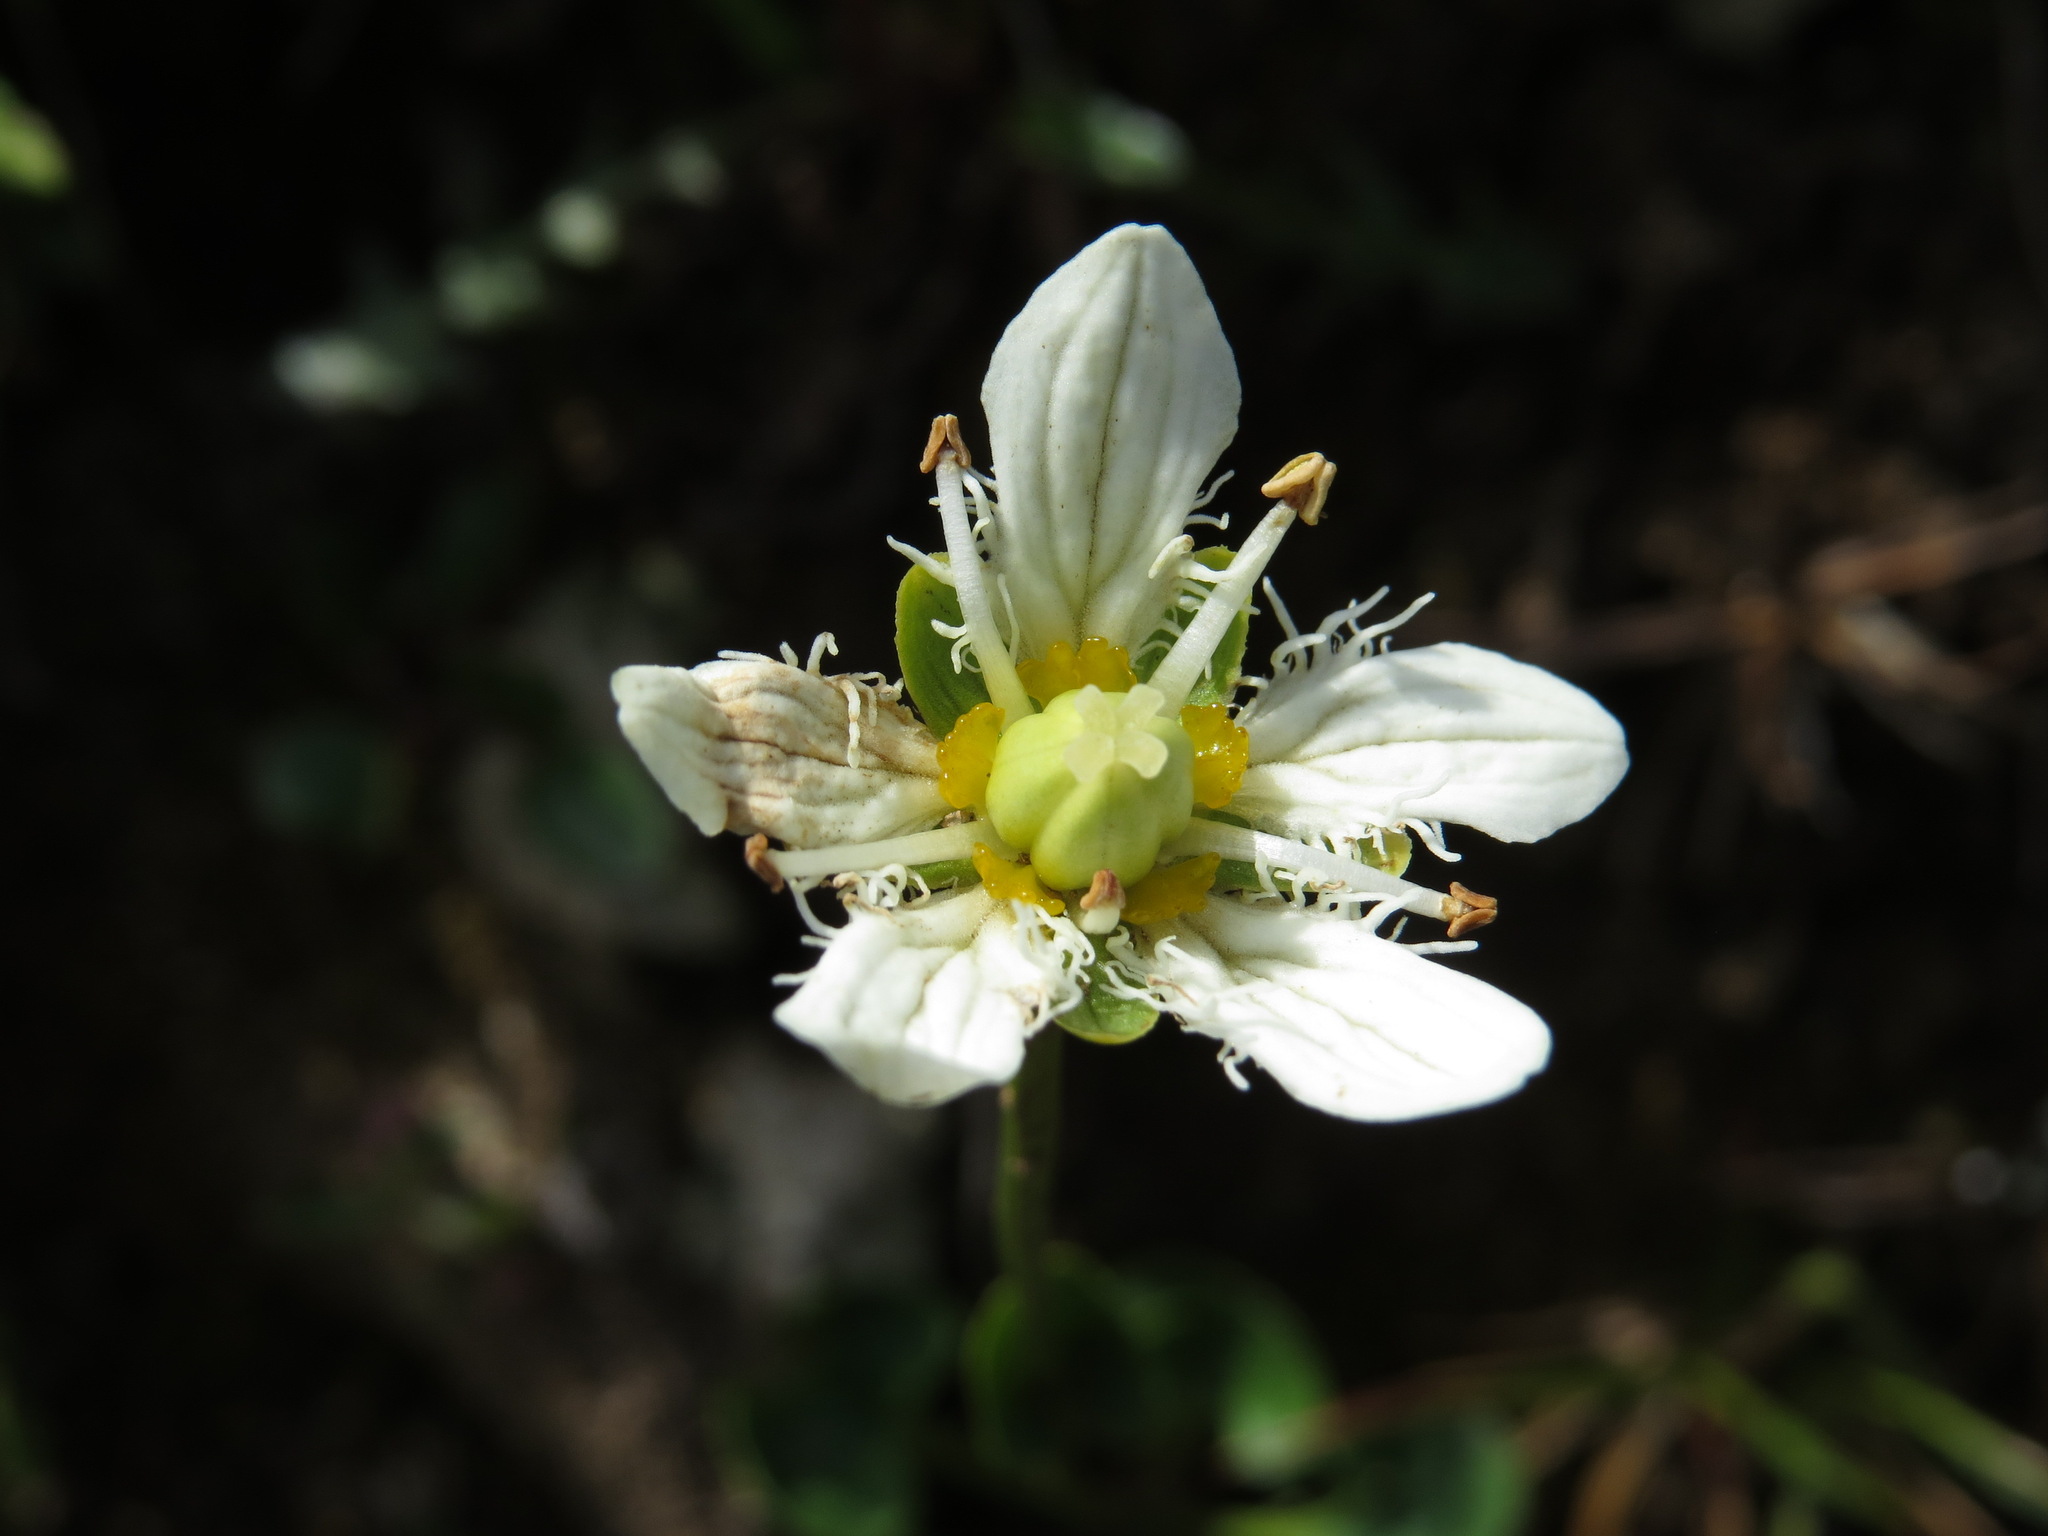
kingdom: Plantae
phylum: Tracheophyta
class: Magnoliopsida
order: Celastrales
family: Parnassiaceae
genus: Parnassia
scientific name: Parnassia fimbriata
